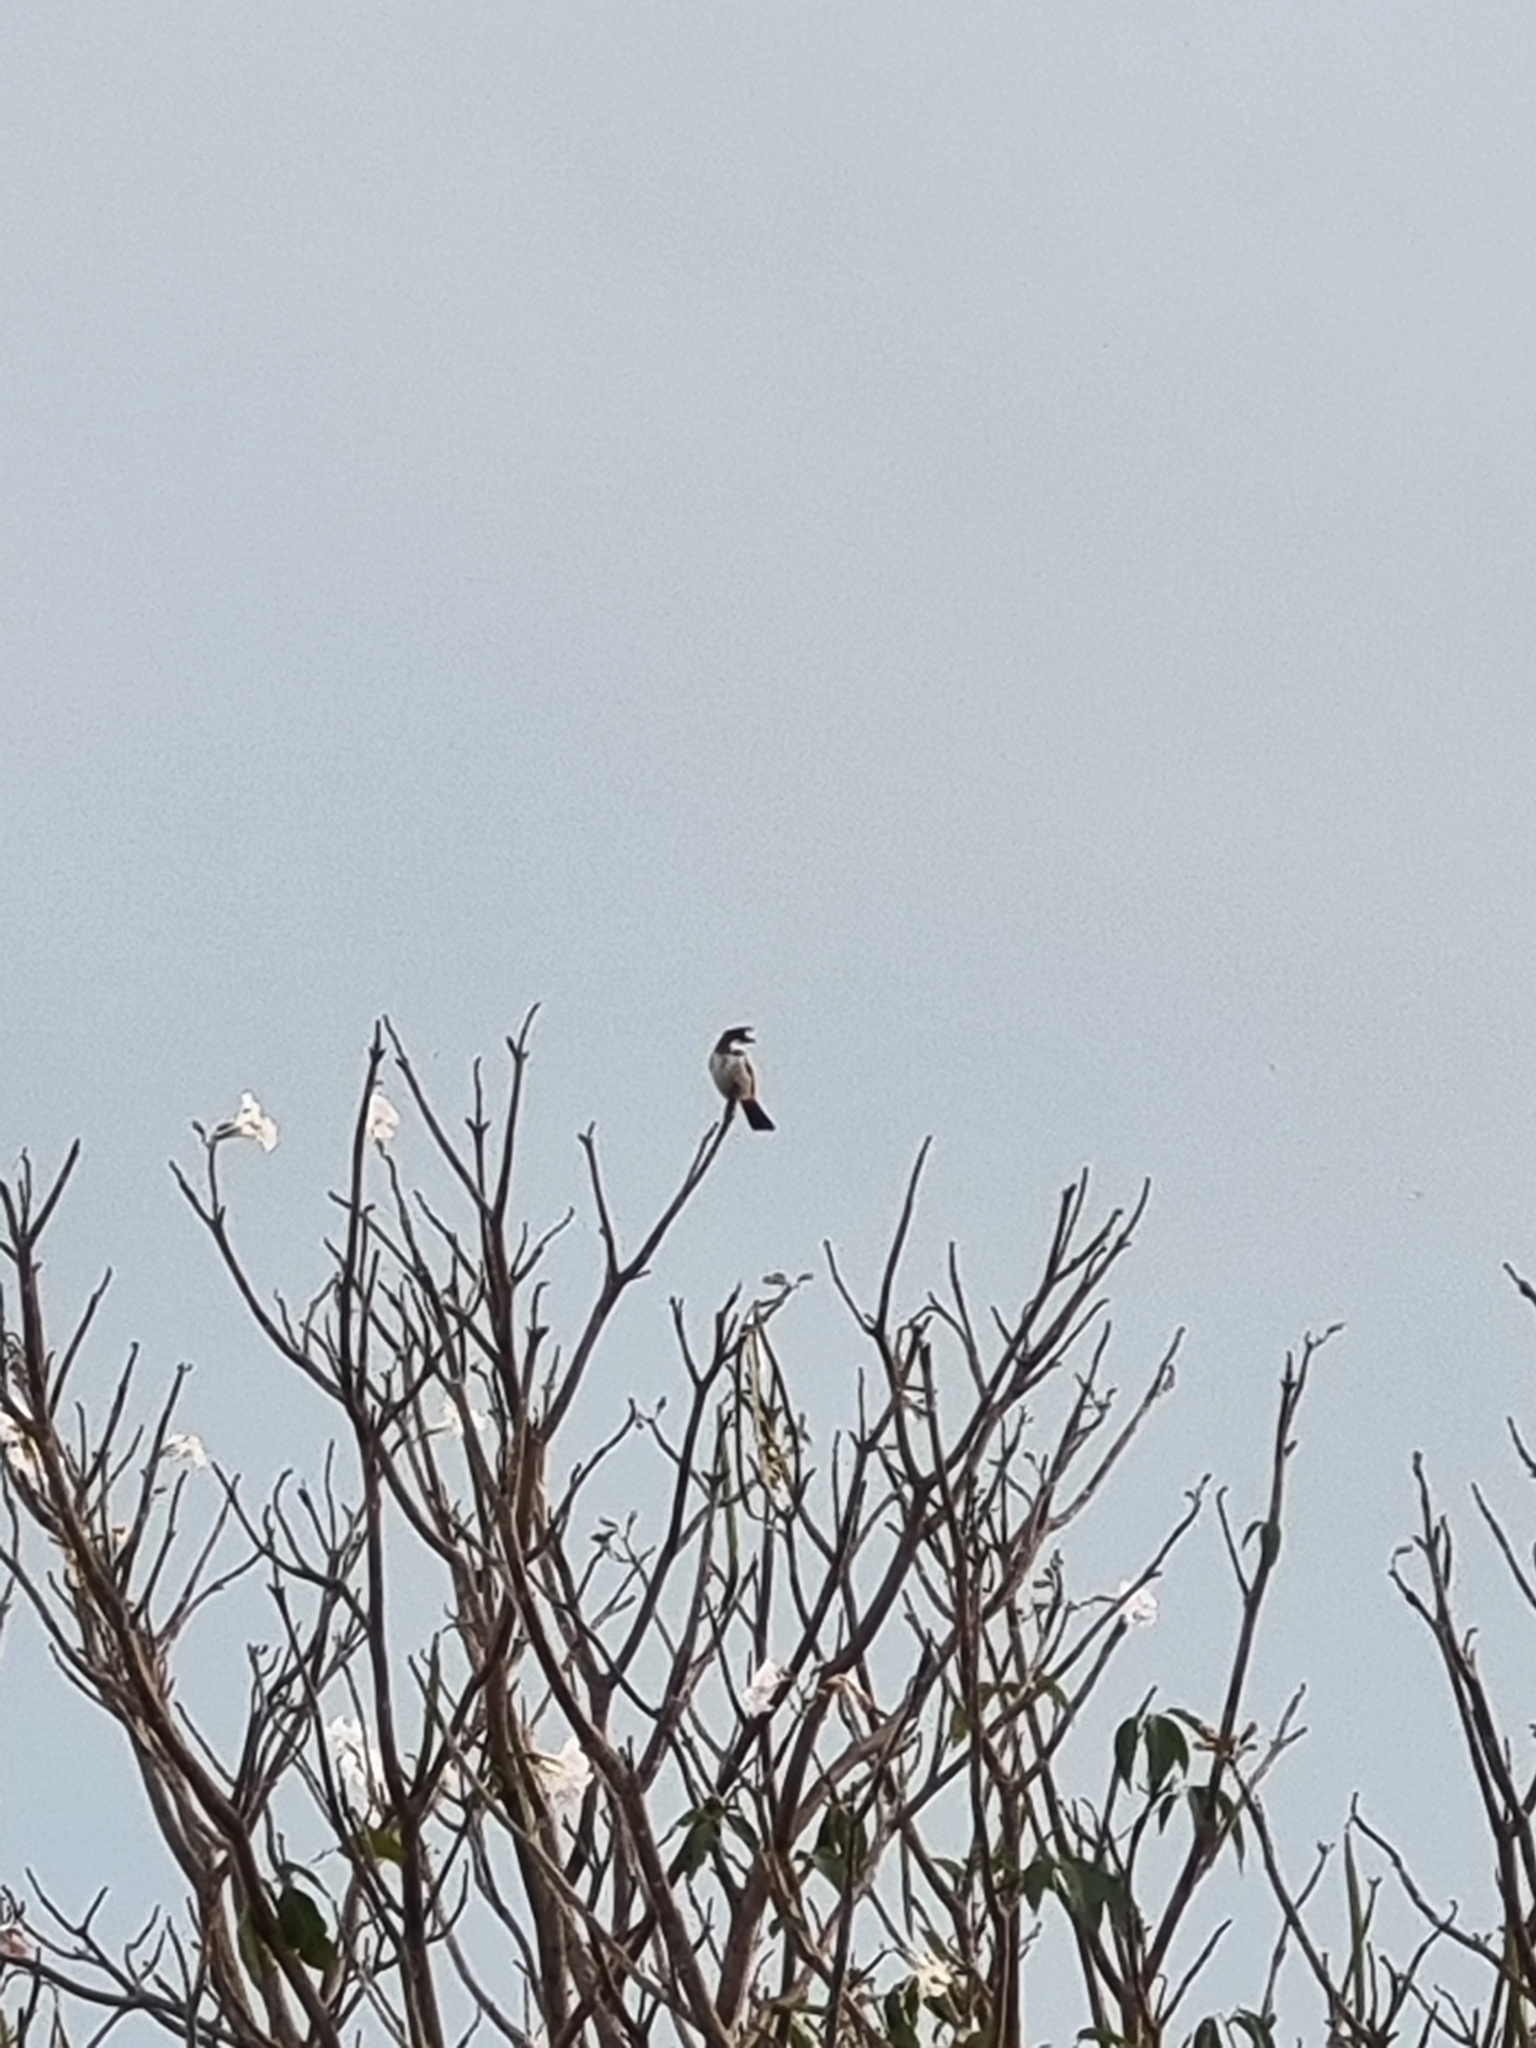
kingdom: Animalia
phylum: Chordata
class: Aves
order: Passeriformes
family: Pycnonotidae
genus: Pycnonotus
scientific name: Pycnonotus jocosus
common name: Red-whiskered bulbul
